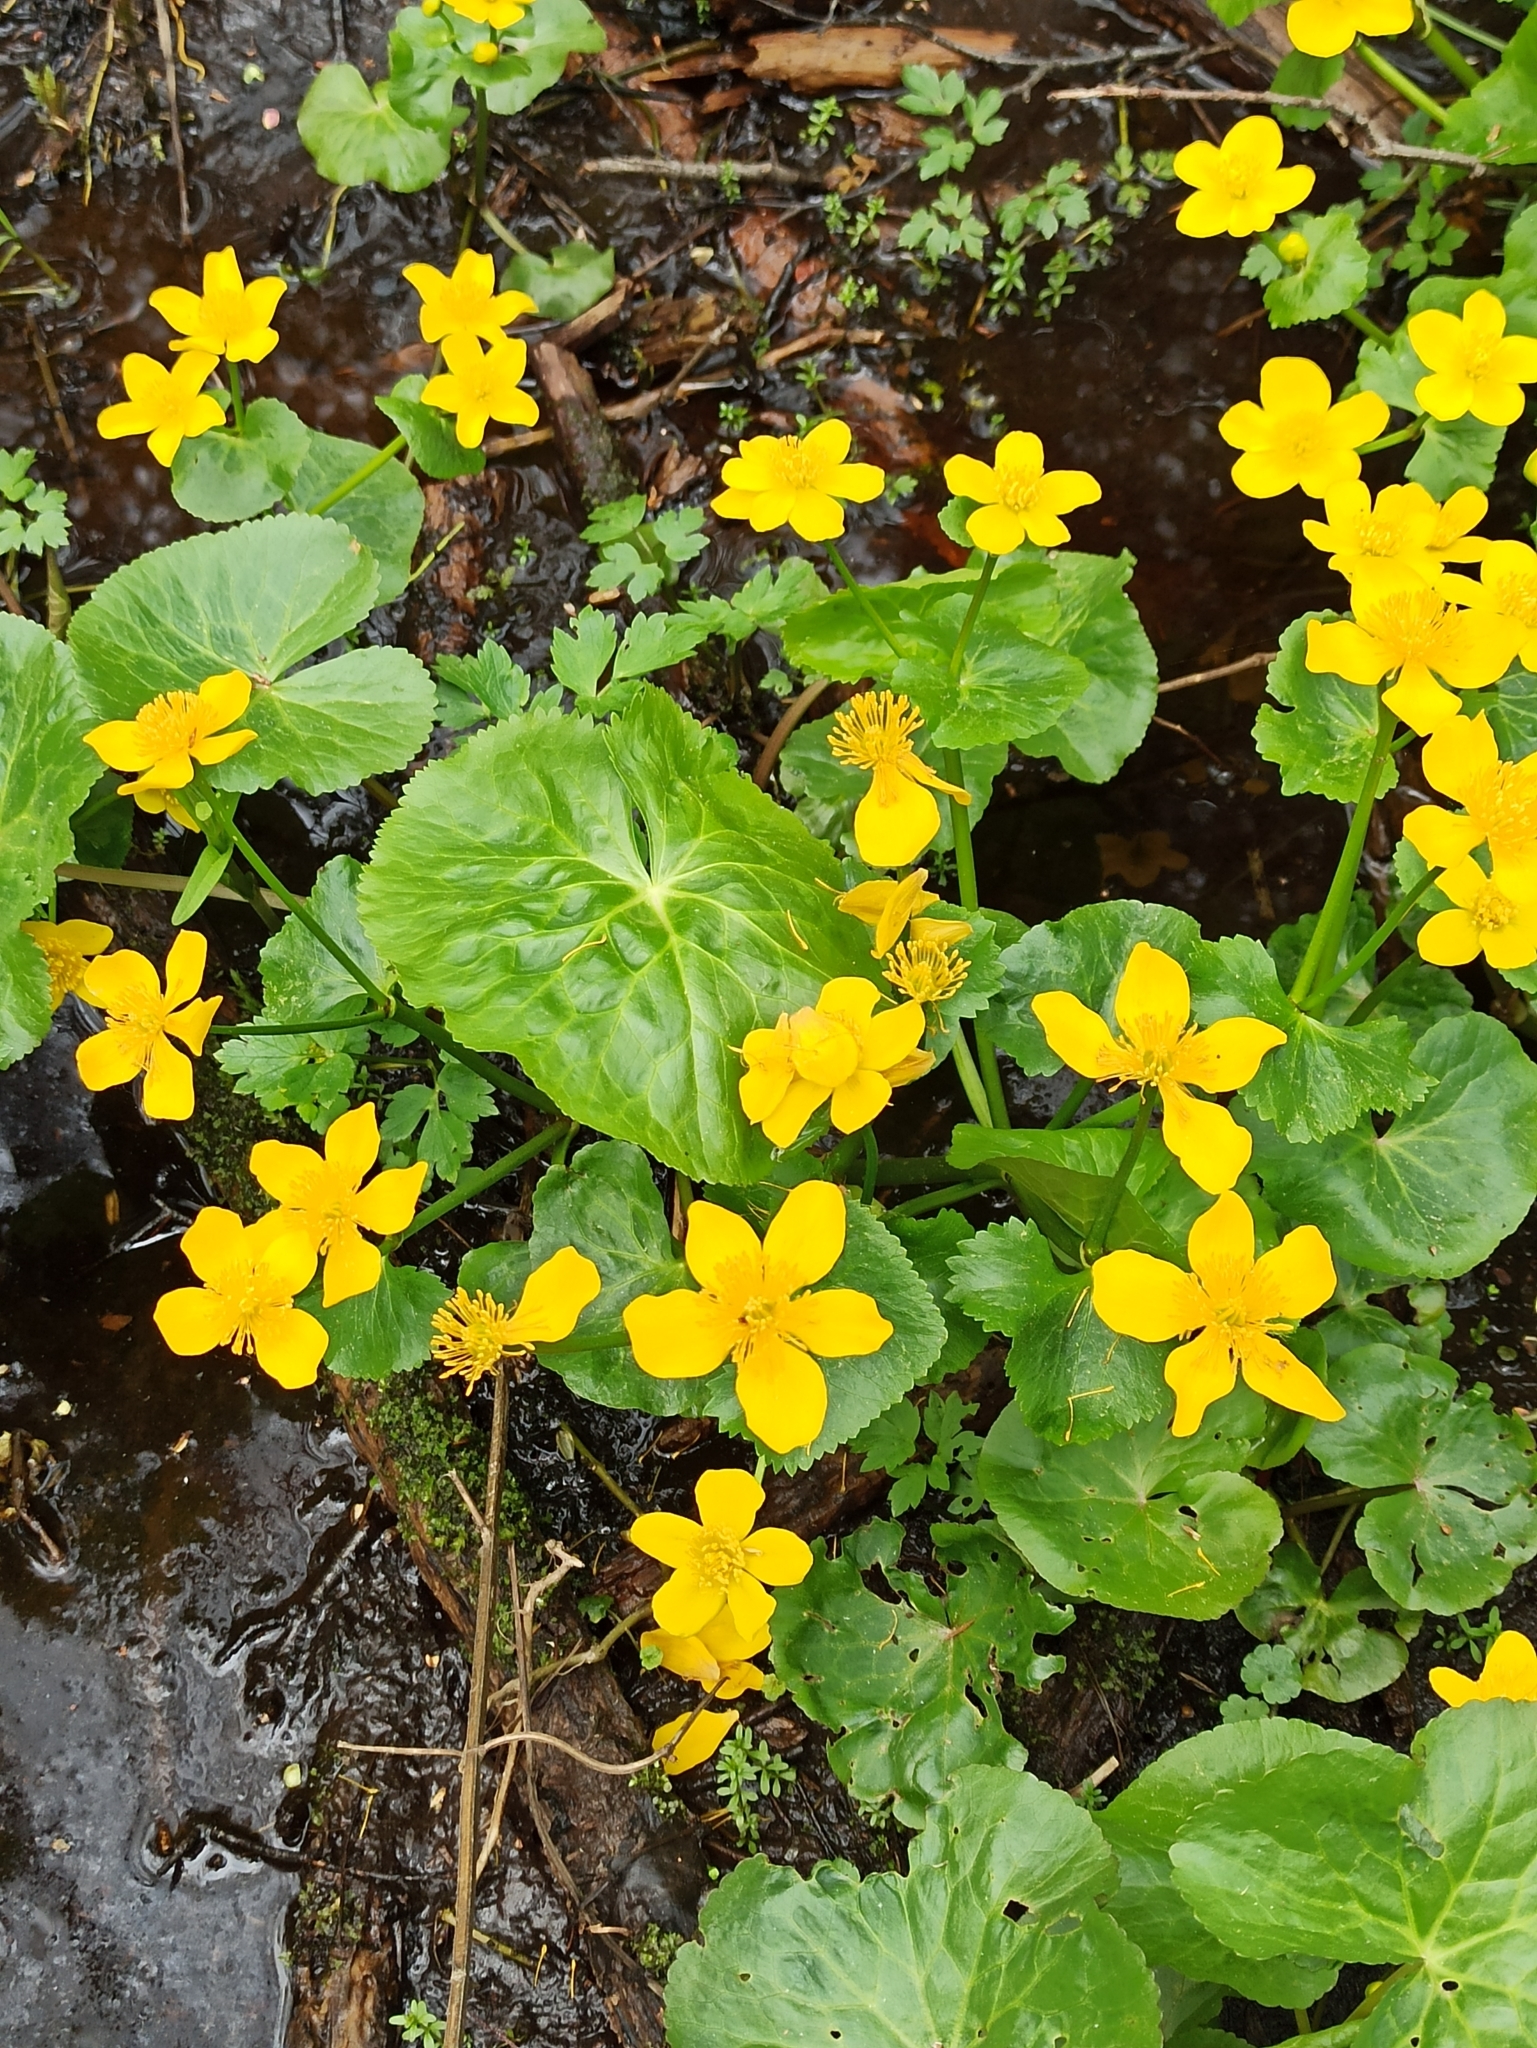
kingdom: Plantae
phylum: Tracheophyta
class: Magnoliopsida
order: Ranunculales
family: Ranunculaceae
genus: Caltha
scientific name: Caltha palustris
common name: Marsh marigold
